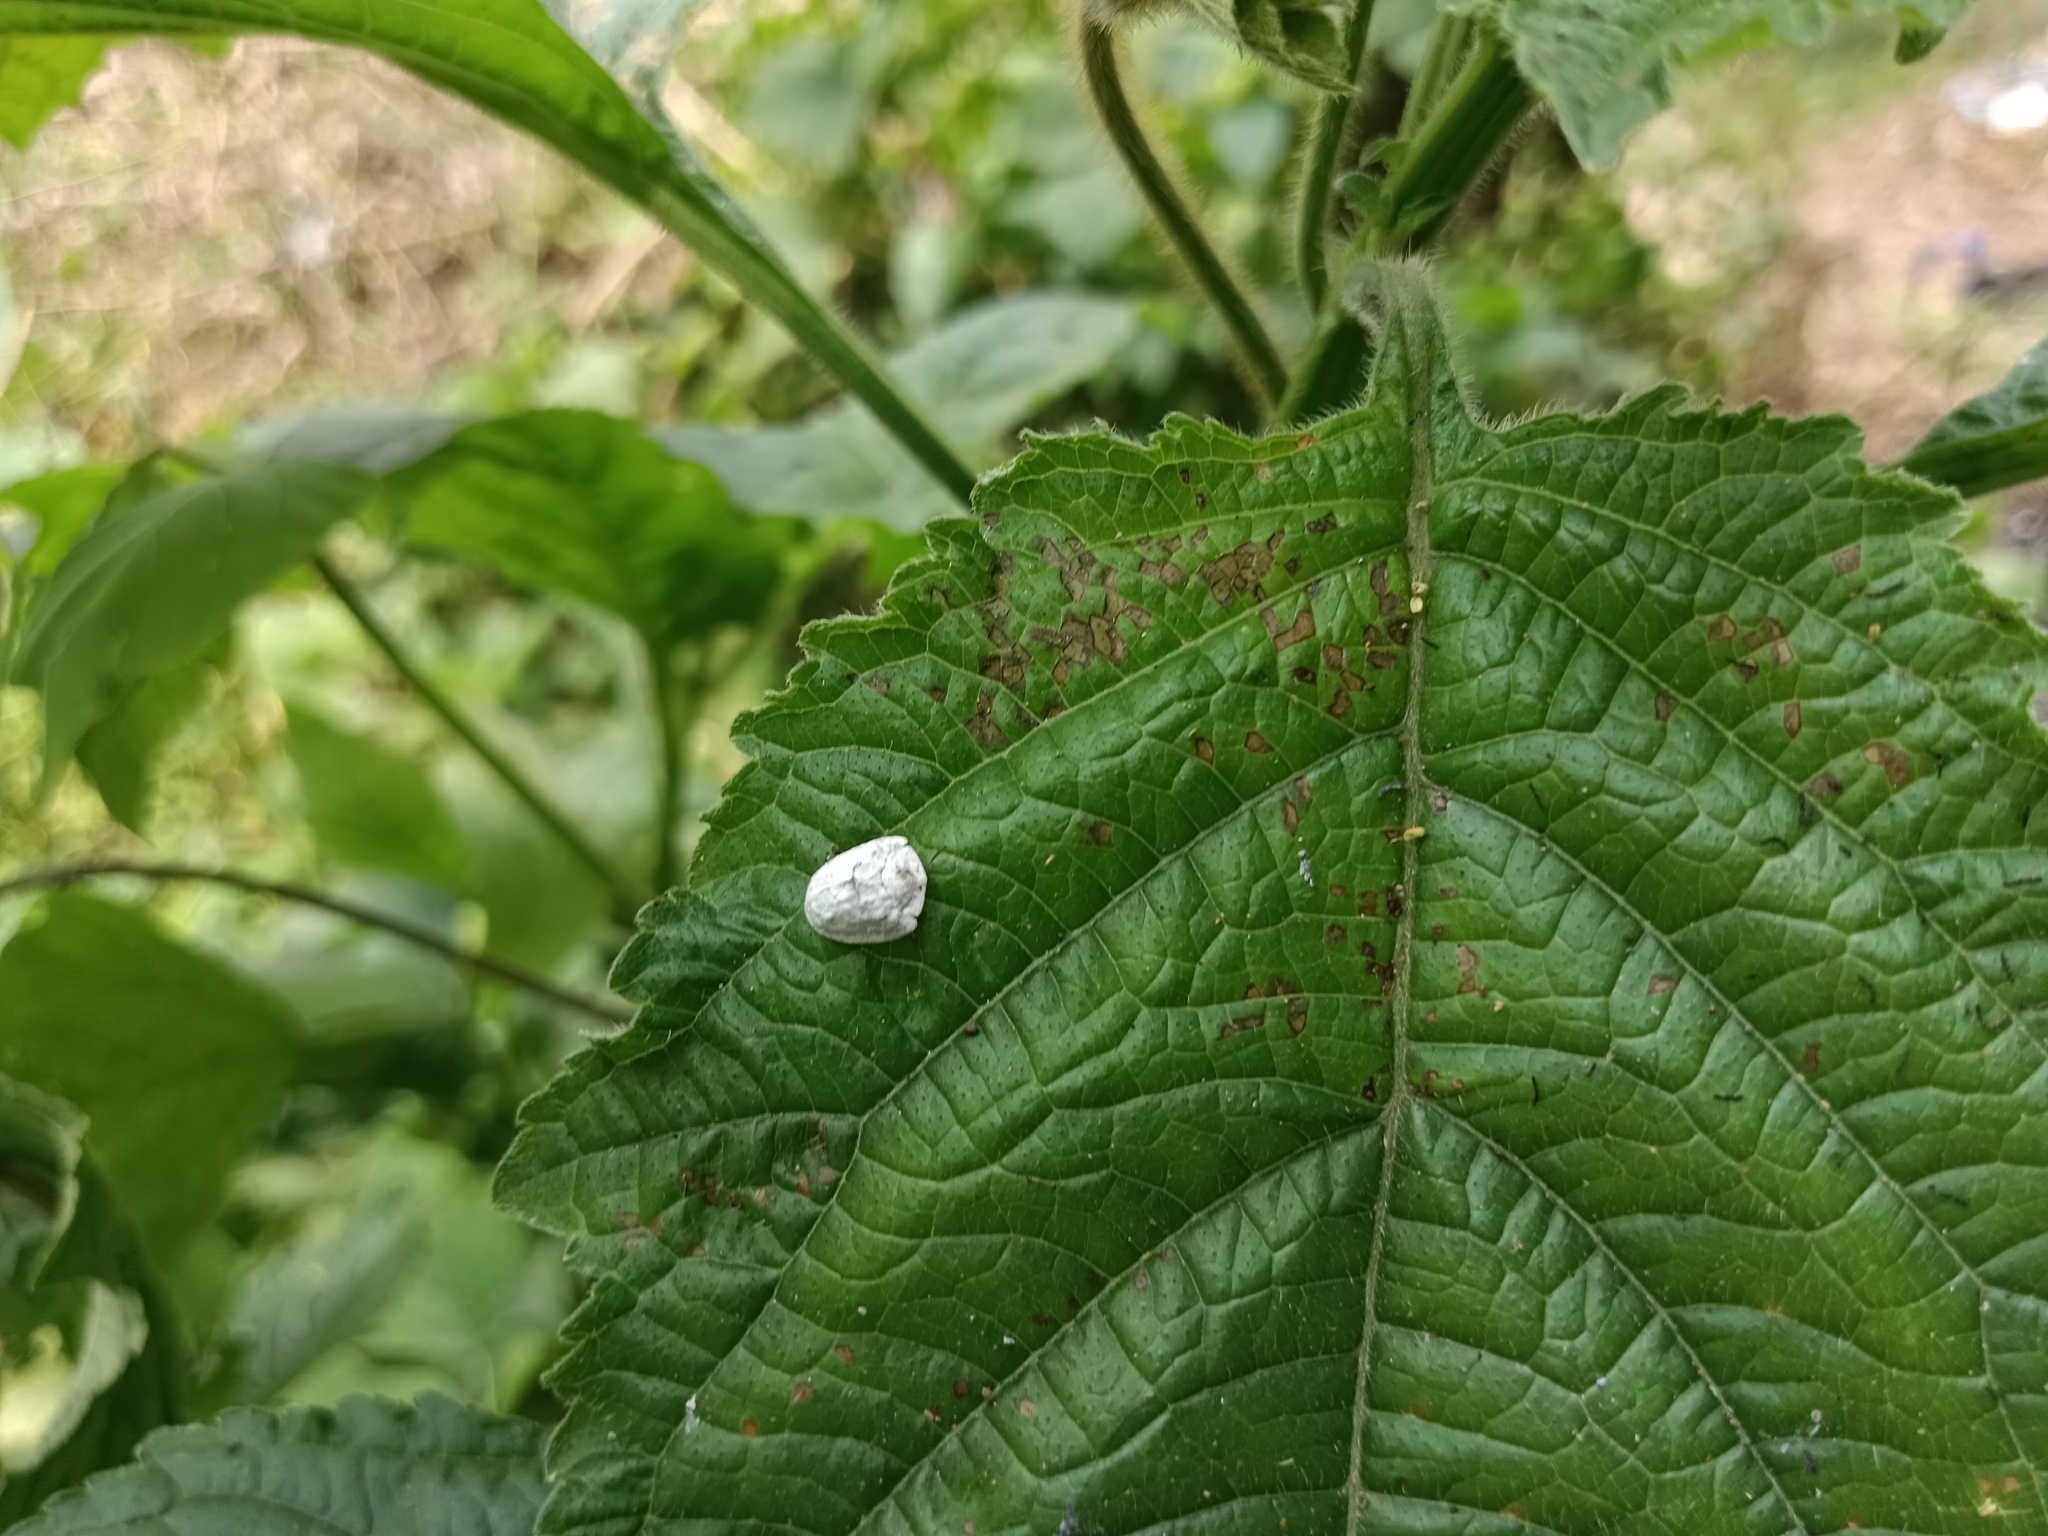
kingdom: Animalia
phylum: Arthropoda
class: Insecta
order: Coleoptera
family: Chrysomelidae
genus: Silana
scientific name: Silana farinosa
